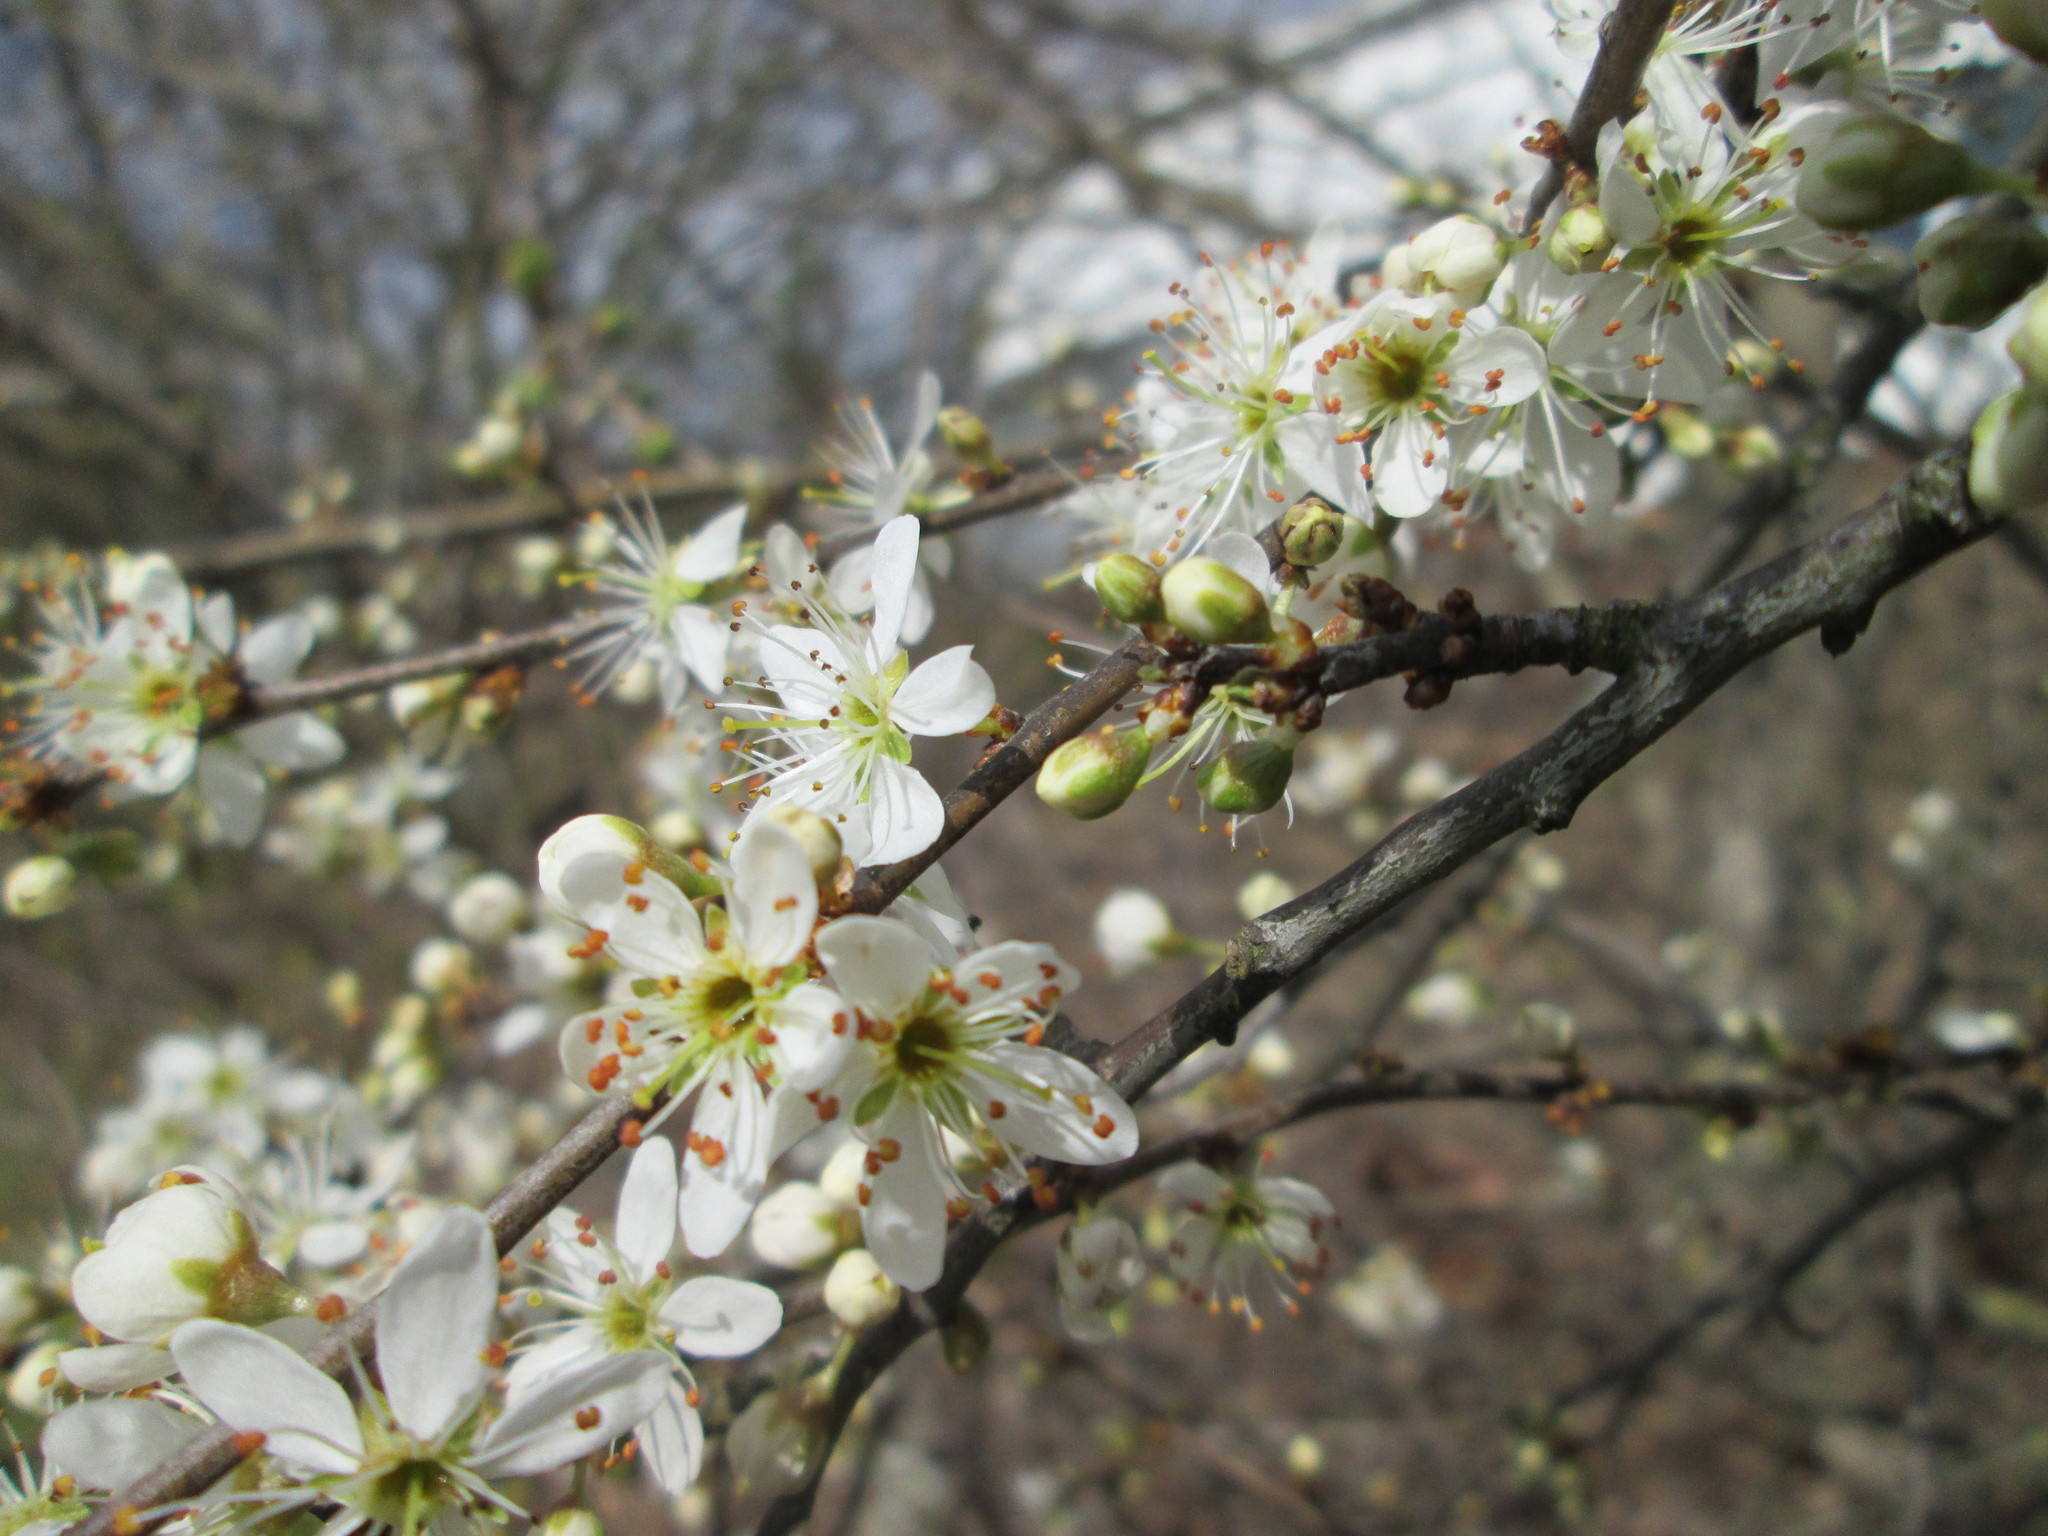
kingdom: Plantae
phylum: Tracheophyta
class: Magnoliopsida
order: Rosales
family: Rosaceae
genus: Prunus
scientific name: Prunus spinosa
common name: Blackthorn
